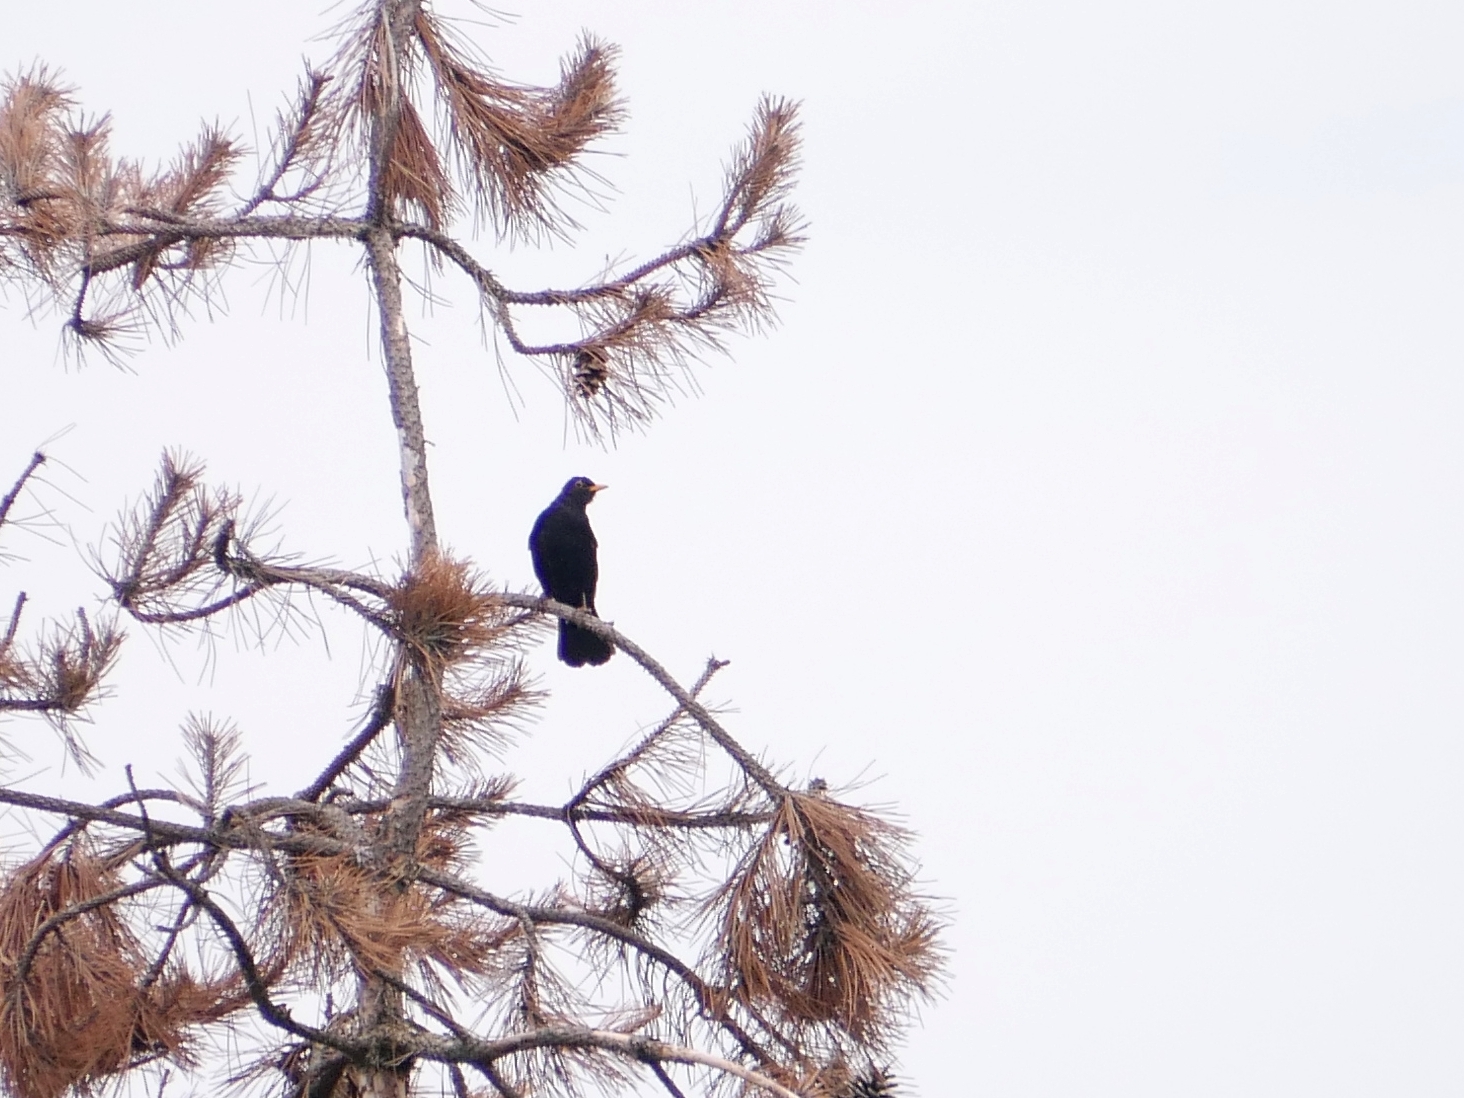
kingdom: Animalia
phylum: Chordata
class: Aves
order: Passeriformes
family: Turdidae
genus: Turdus
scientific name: Turdus merula
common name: Common blackbird
